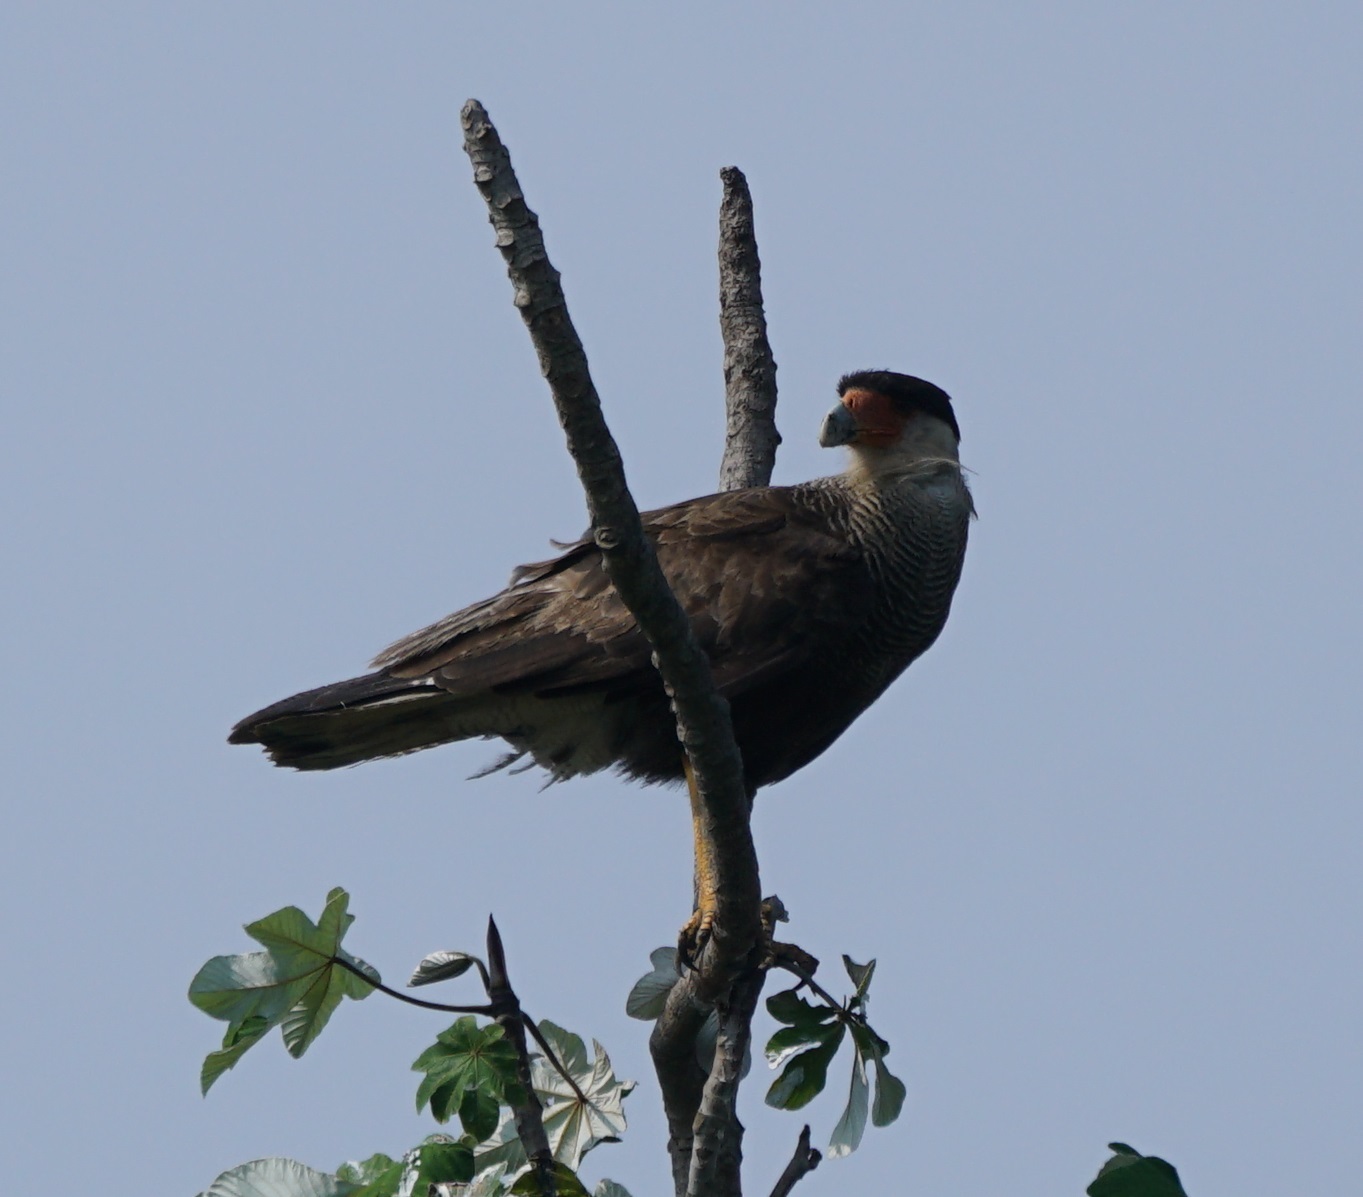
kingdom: Animalia
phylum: Chordata
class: Aves
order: Falconiformes
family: Falconidae
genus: Caracara
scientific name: Caracara plancus
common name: Southern caracara
